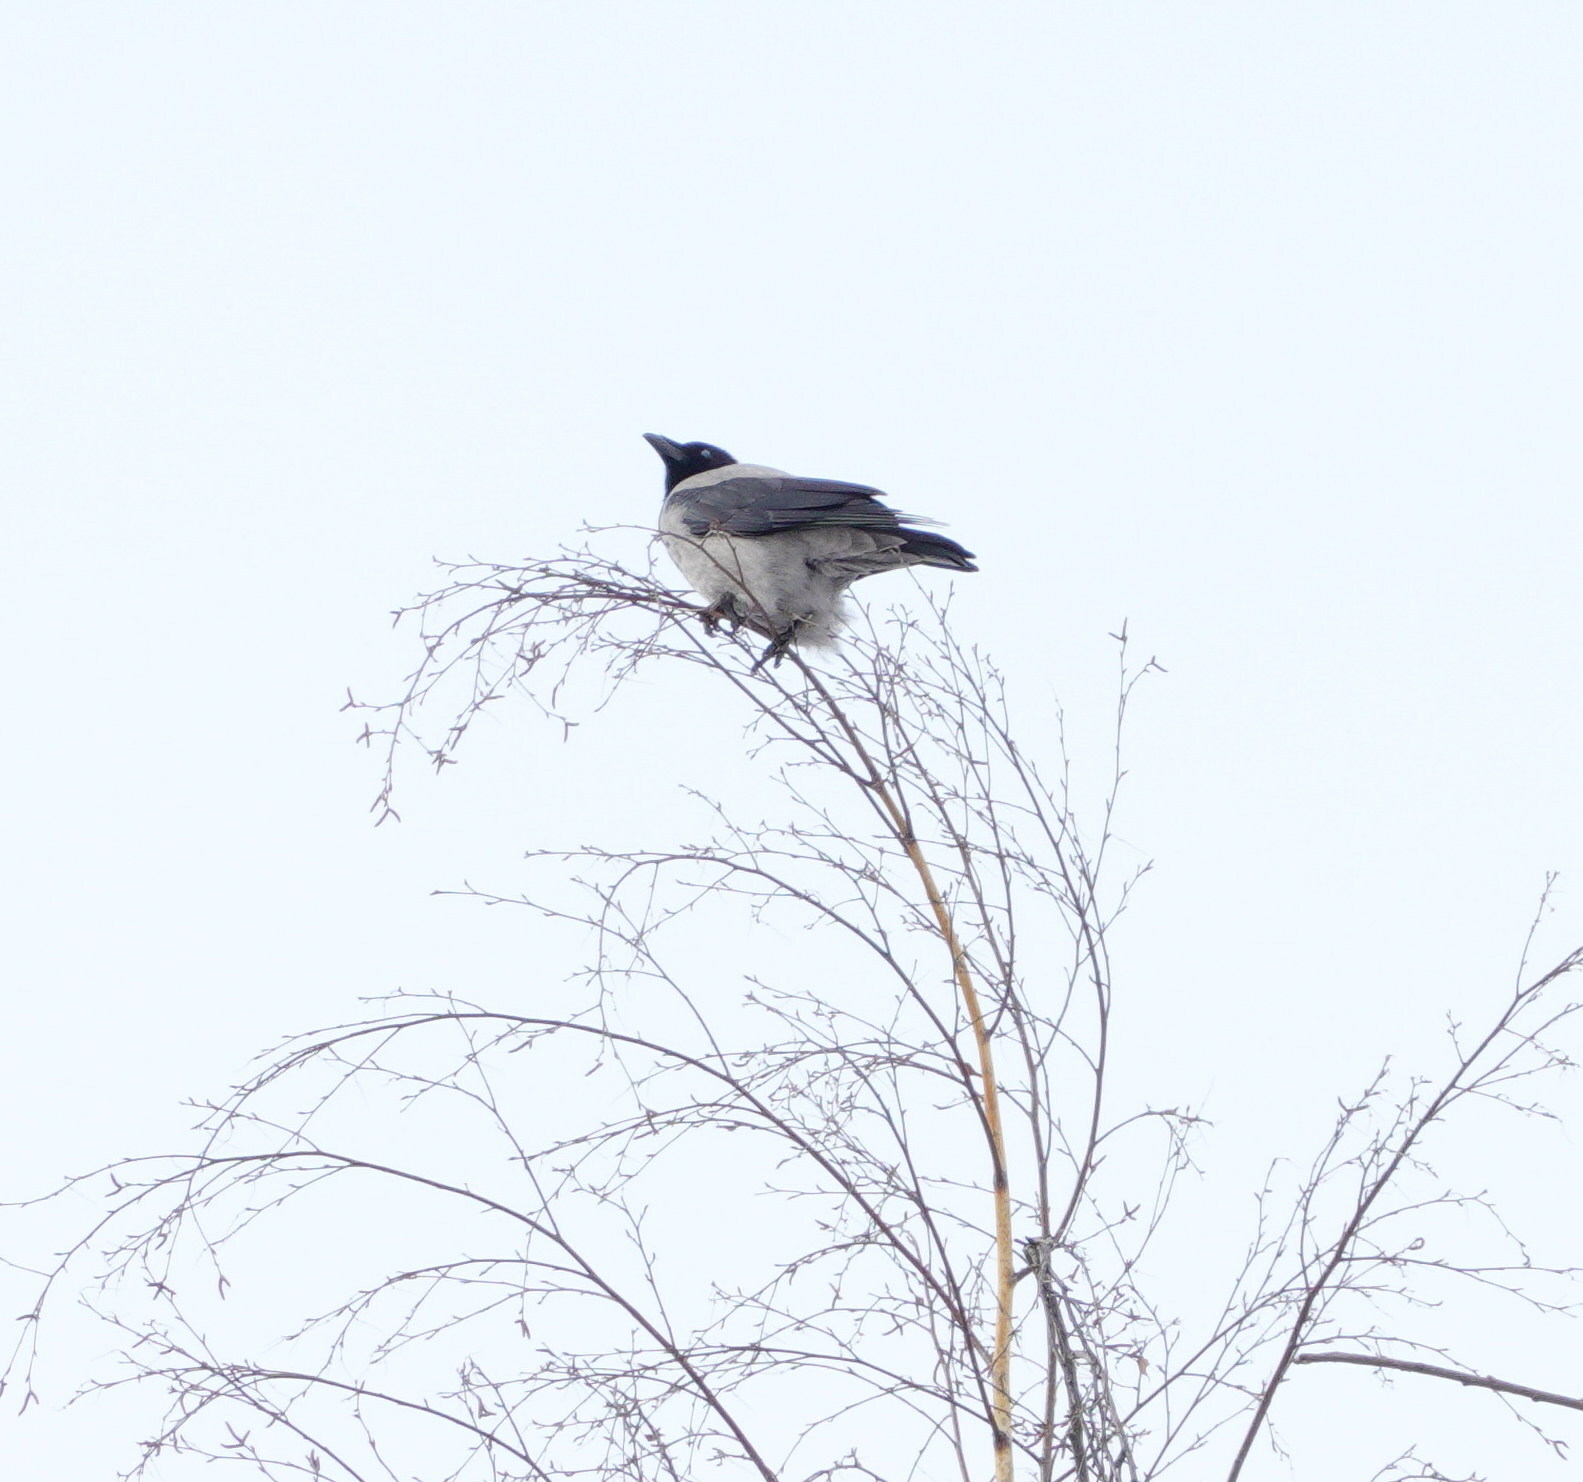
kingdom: Animalia
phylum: Chordata
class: Aves
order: Passeriformes
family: Corvidae
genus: Corvus
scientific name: Corvus cornix
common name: Hooded crow
